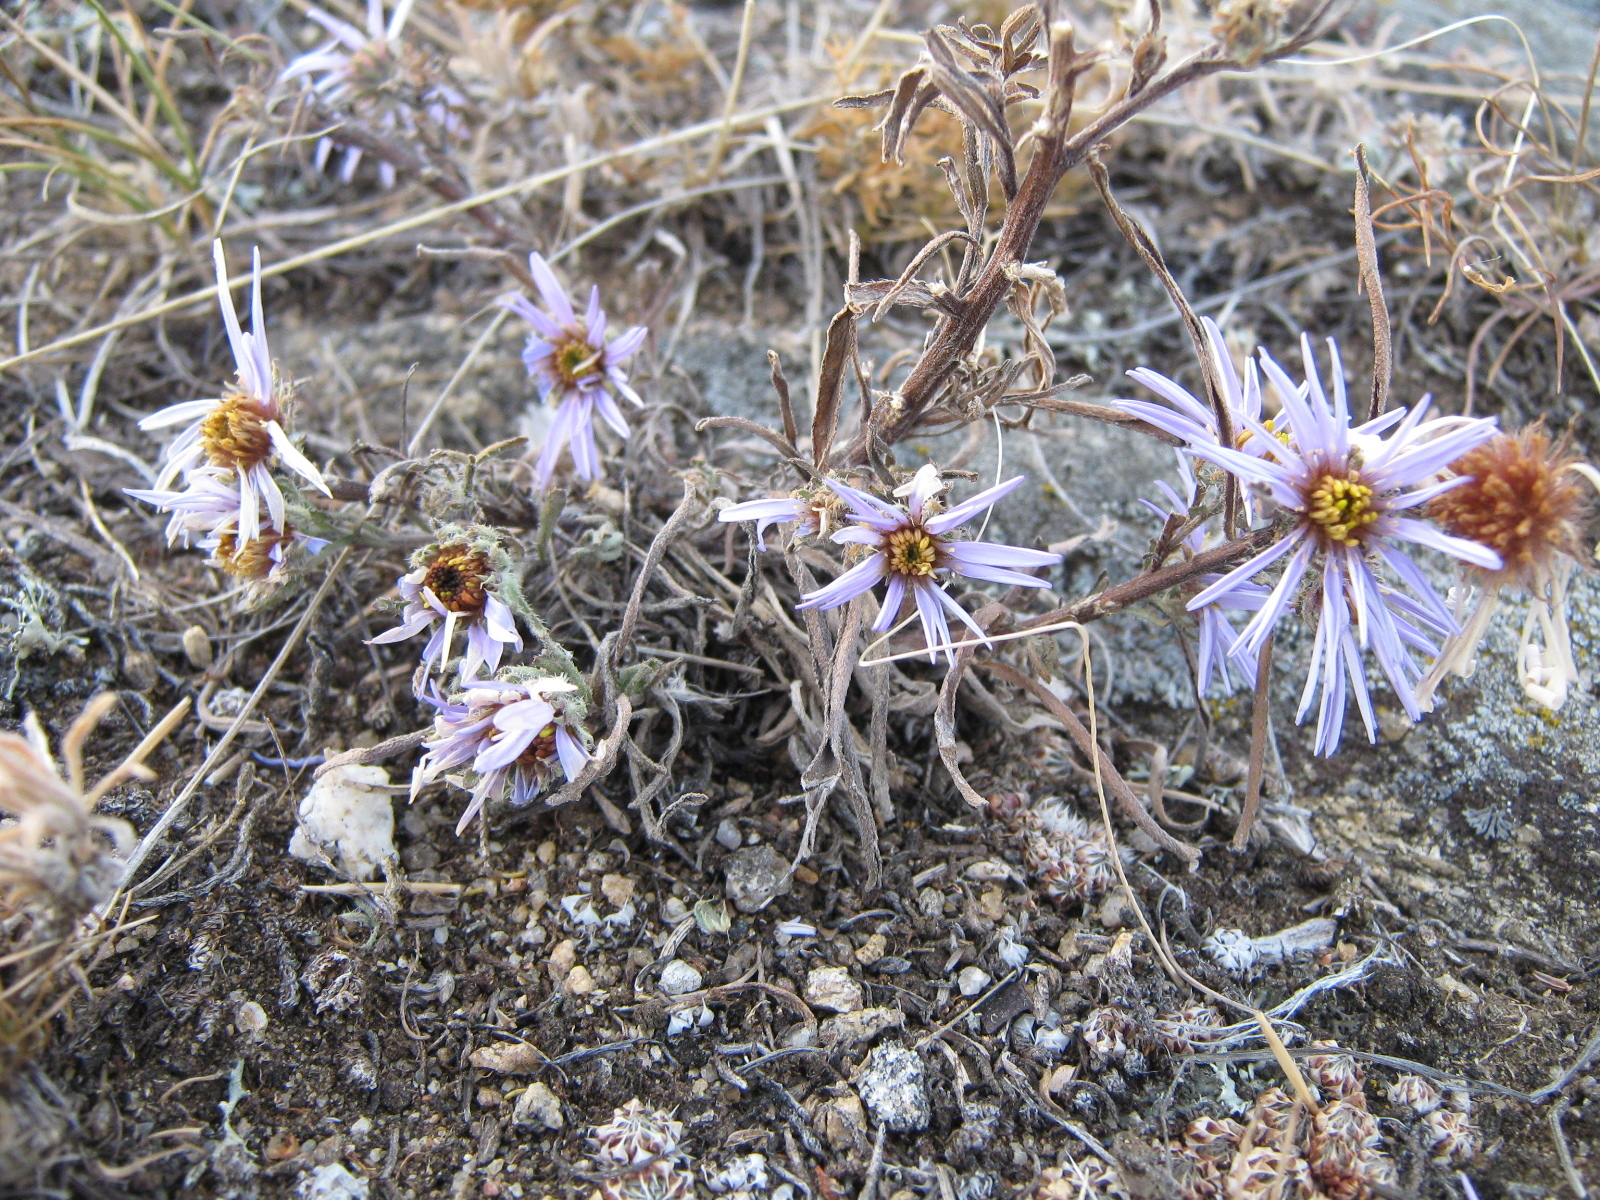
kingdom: Plantae
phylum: Tracheophyta
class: Magnoliopsida
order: Asterales
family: Asteraceae
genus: Heteropappus
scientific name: Heteropappus altaicus
